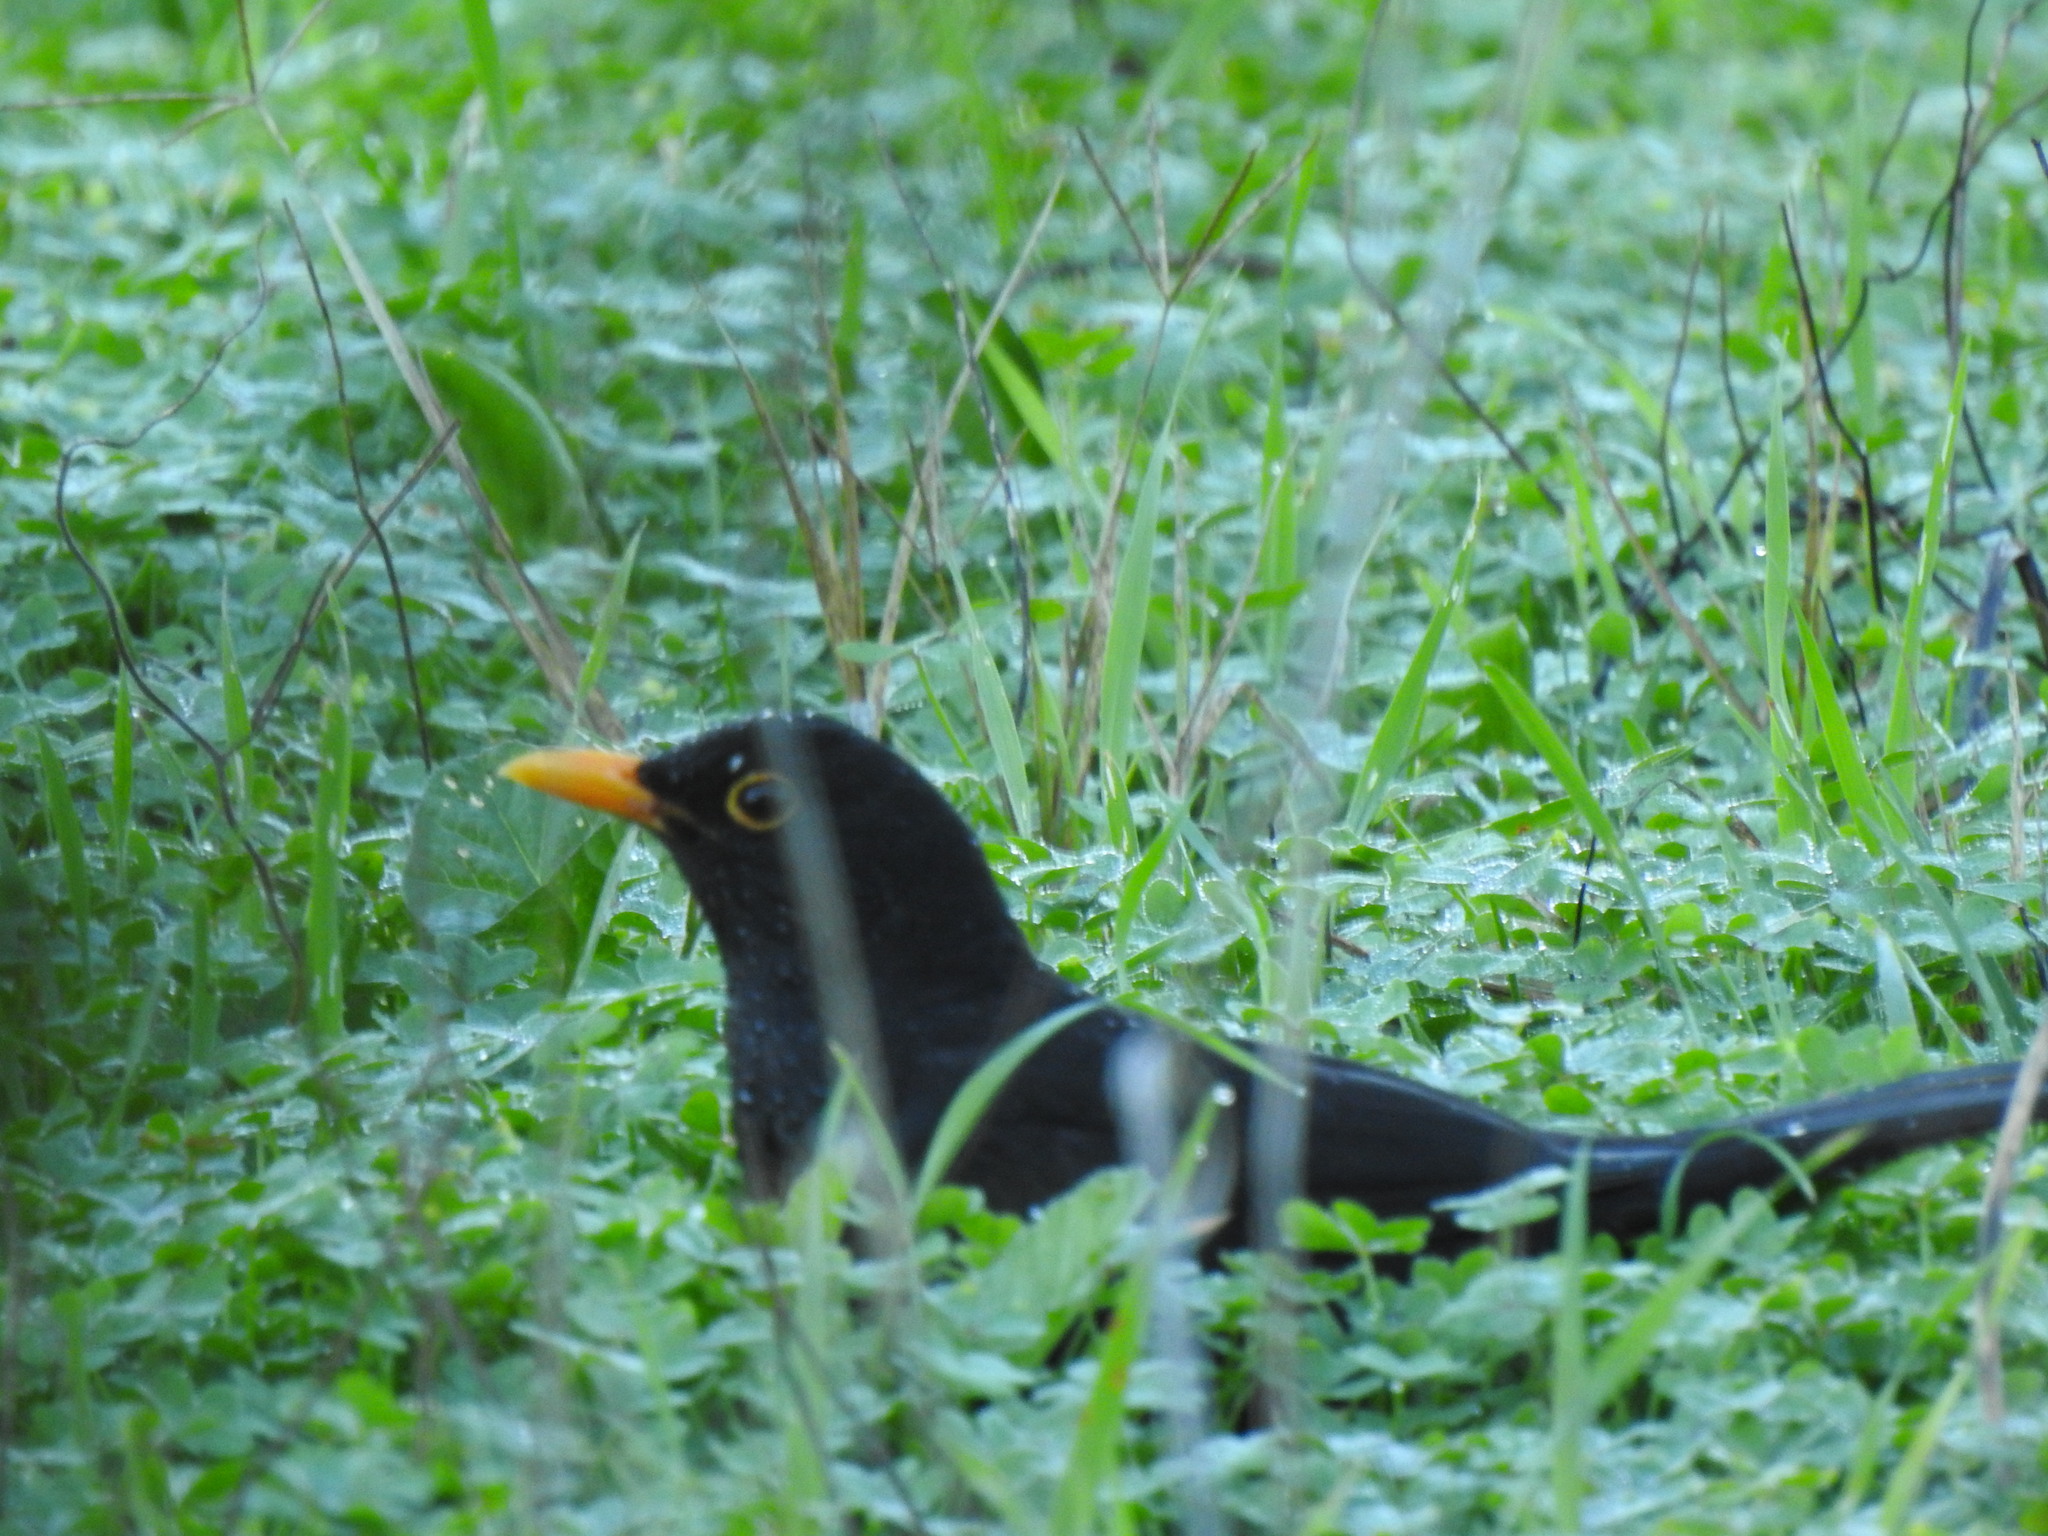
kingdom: Animalia
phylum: Chordata
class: Aves
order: Passeriformes
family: Turdidae
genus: Turdus
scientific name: Turdus merula
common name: Common blackbird
